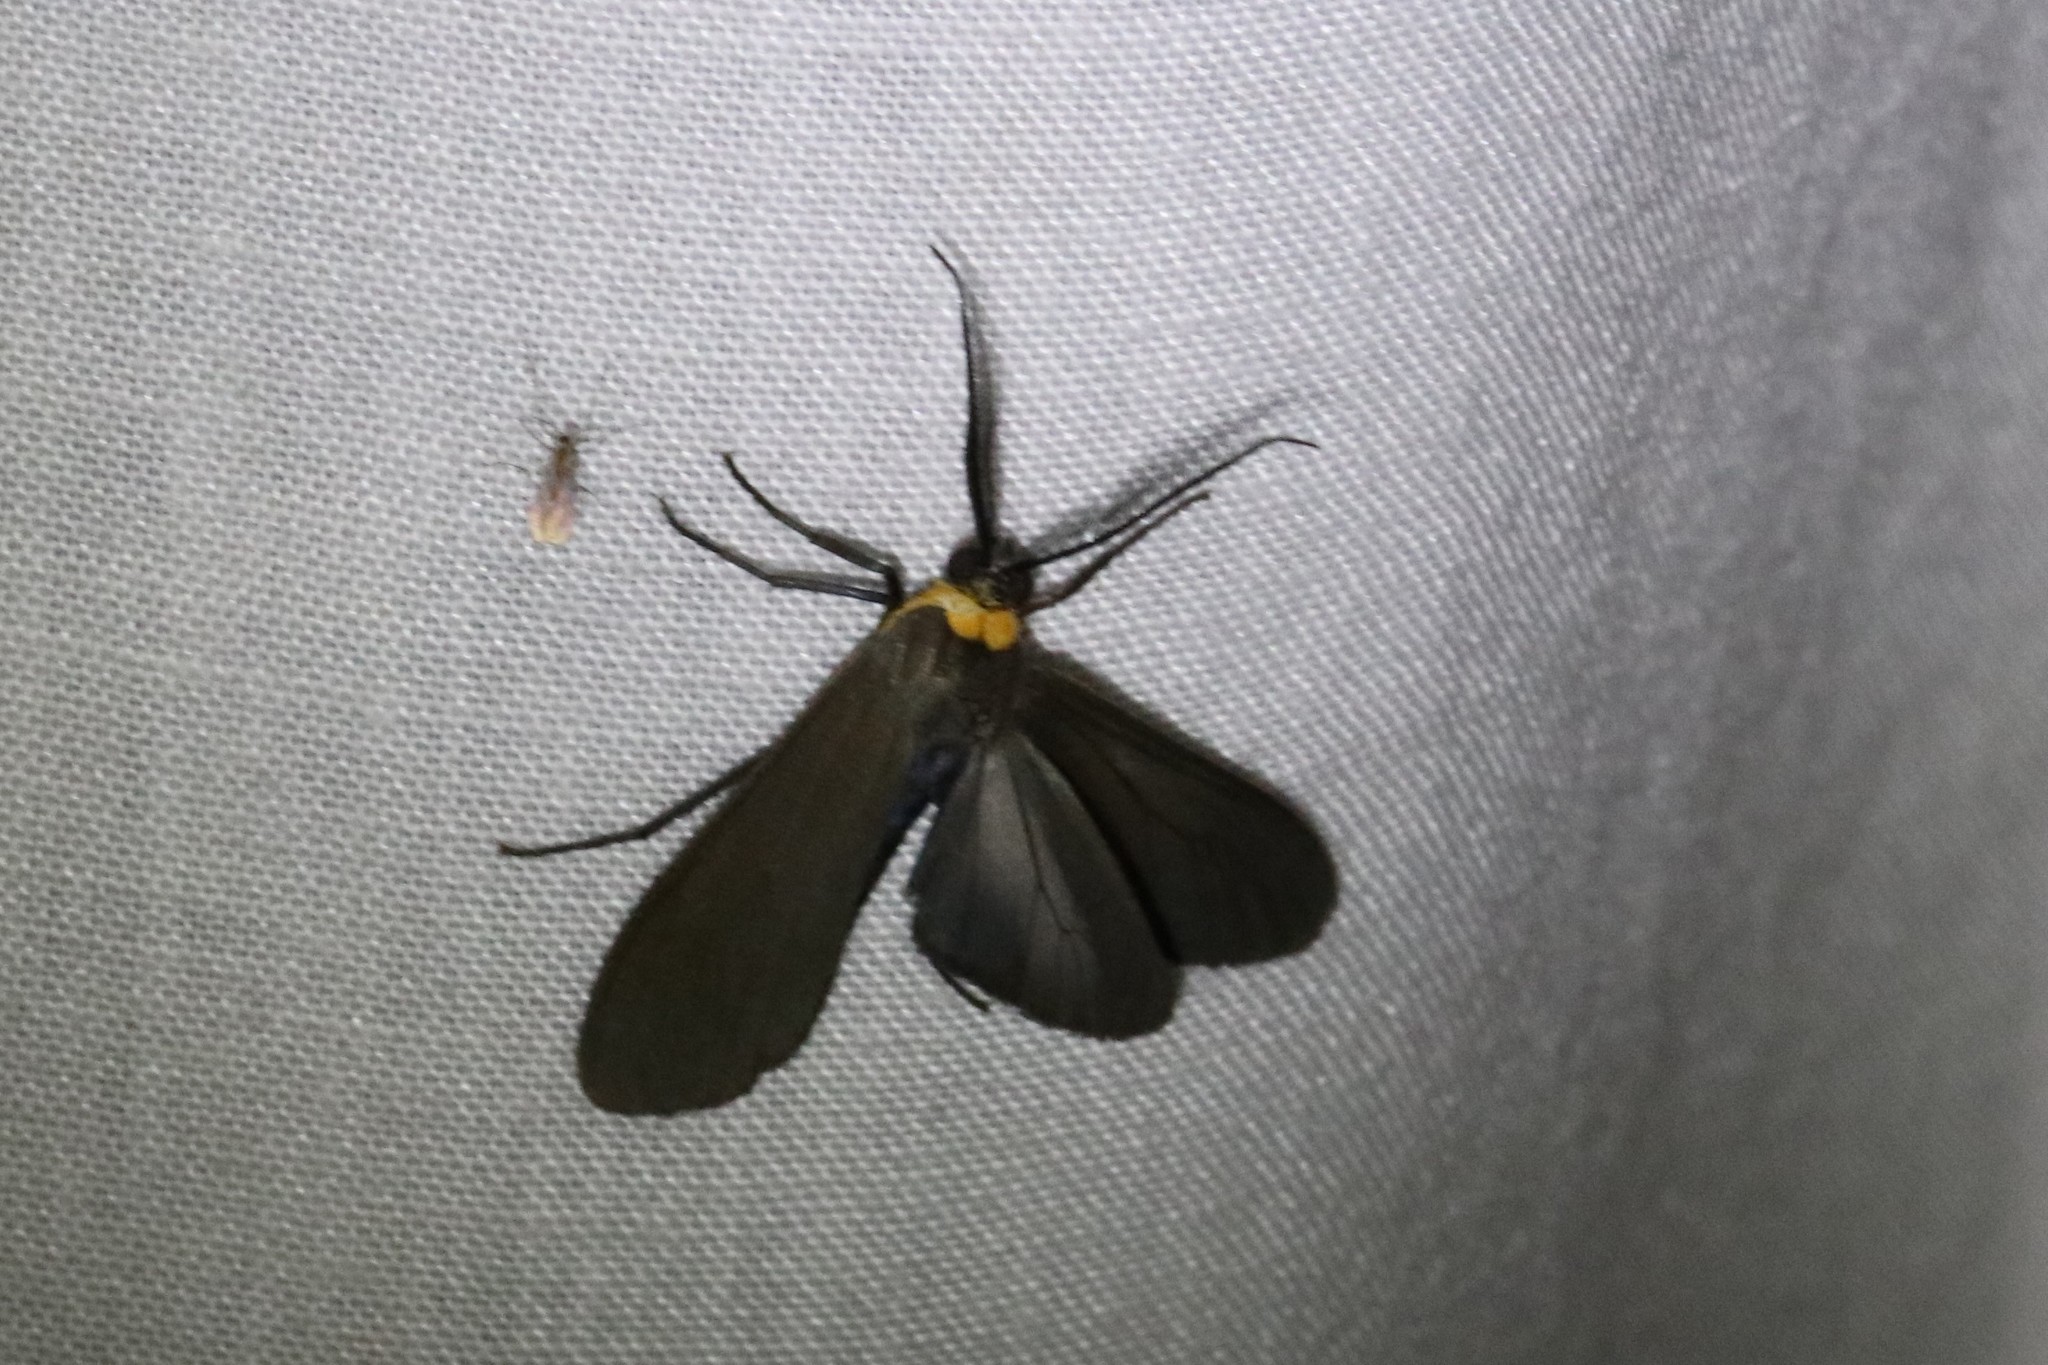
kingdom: Animalia
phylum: Arthropoda
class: Insecta
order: Lepidoptera
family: Erebidae
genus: Cisseps
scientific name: Cisseps fulvicollis
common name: Yellow-collared scape moth
